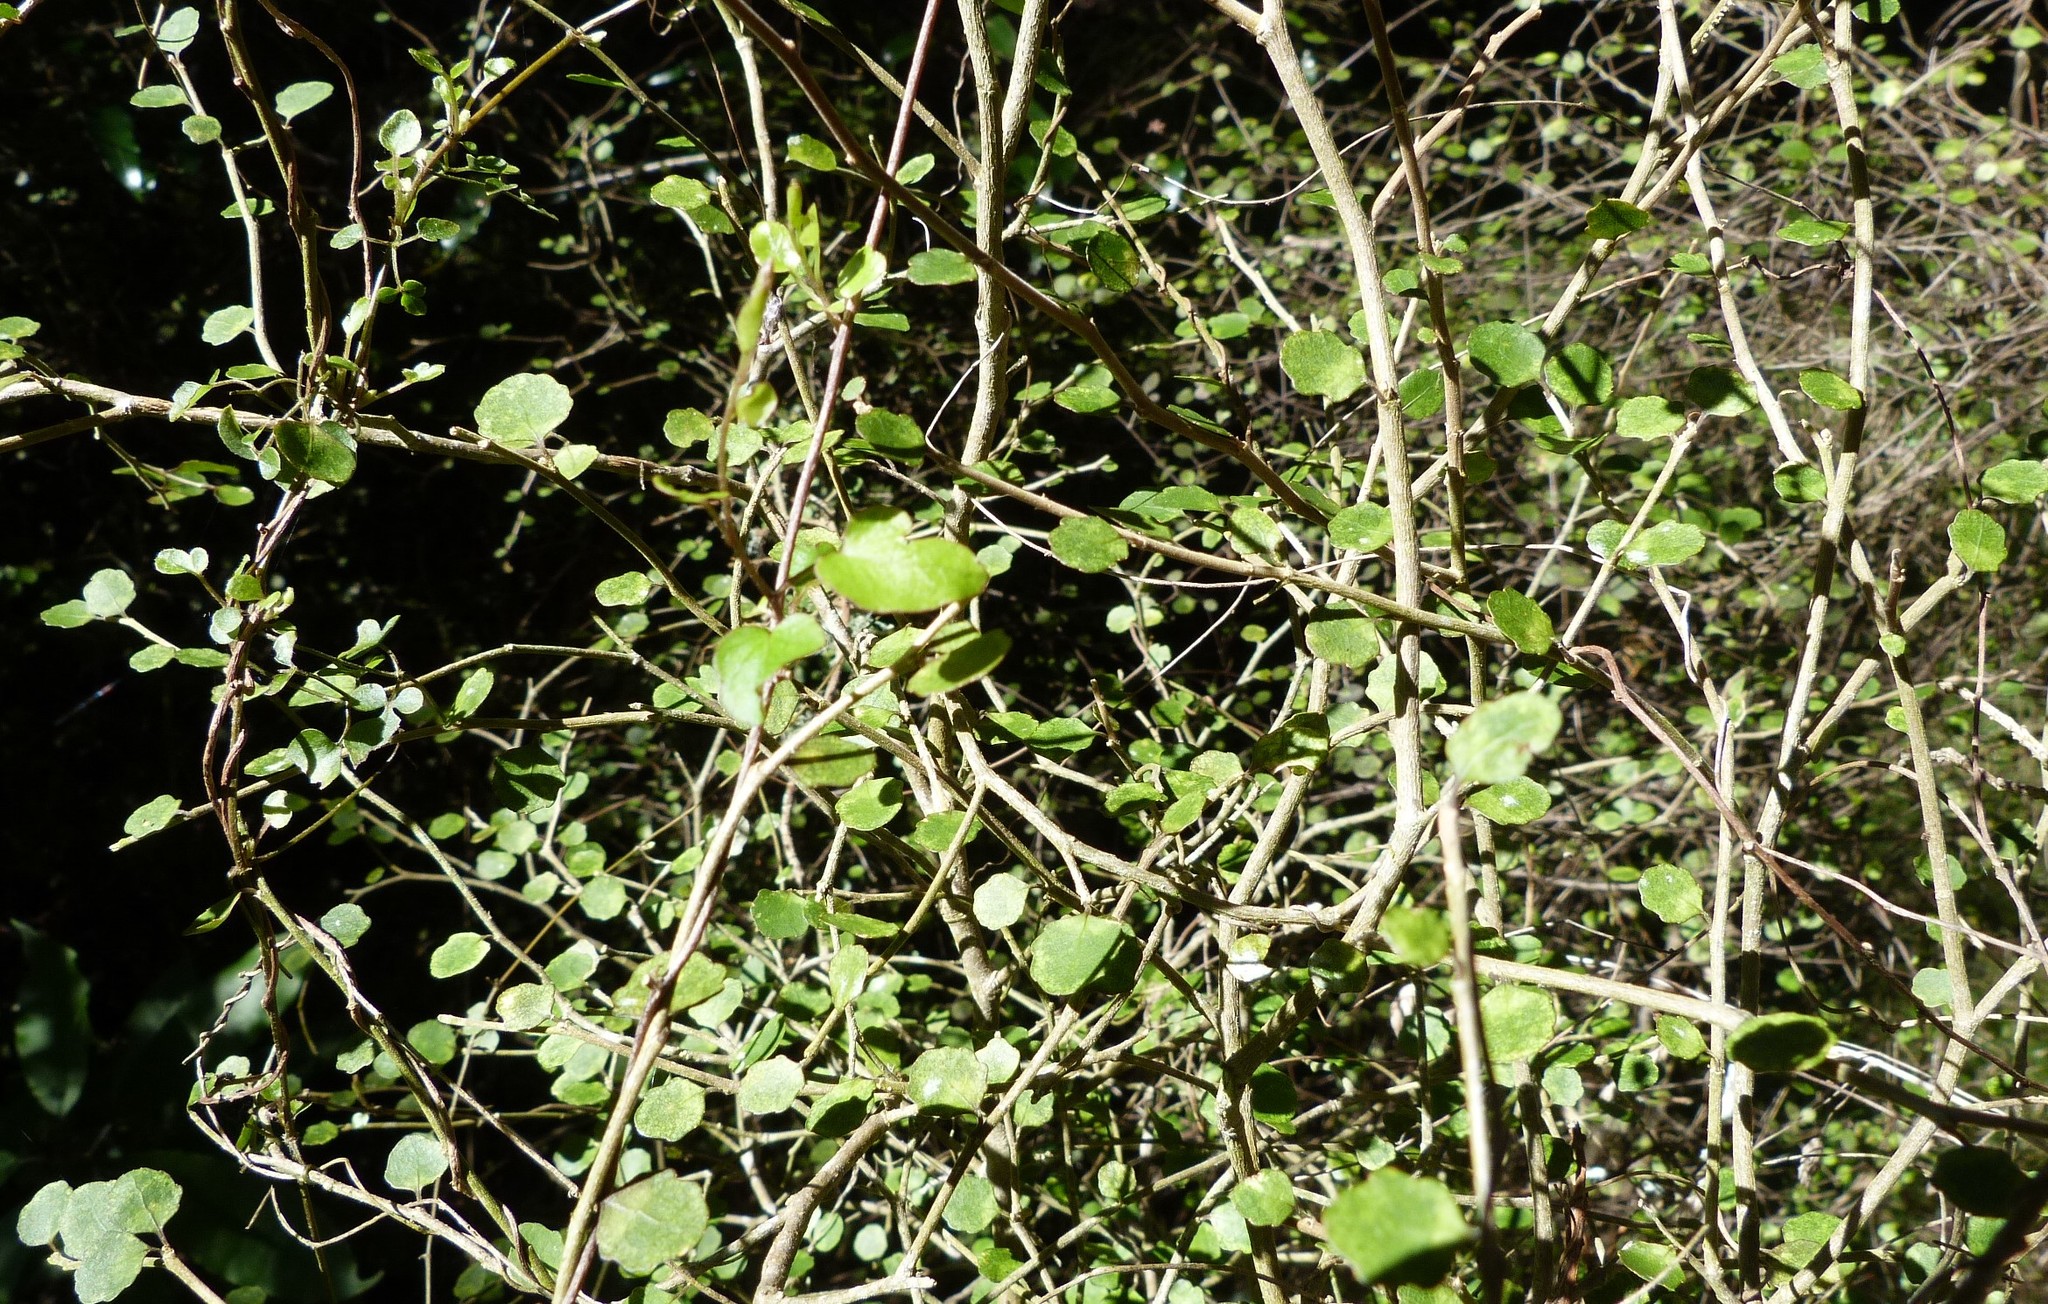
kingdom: Plantae
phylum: Tracheophyta
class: Magnoliopsida
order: Malpighiales
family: Violaceae
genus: Melicytus
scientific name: Melicytus micranthus
